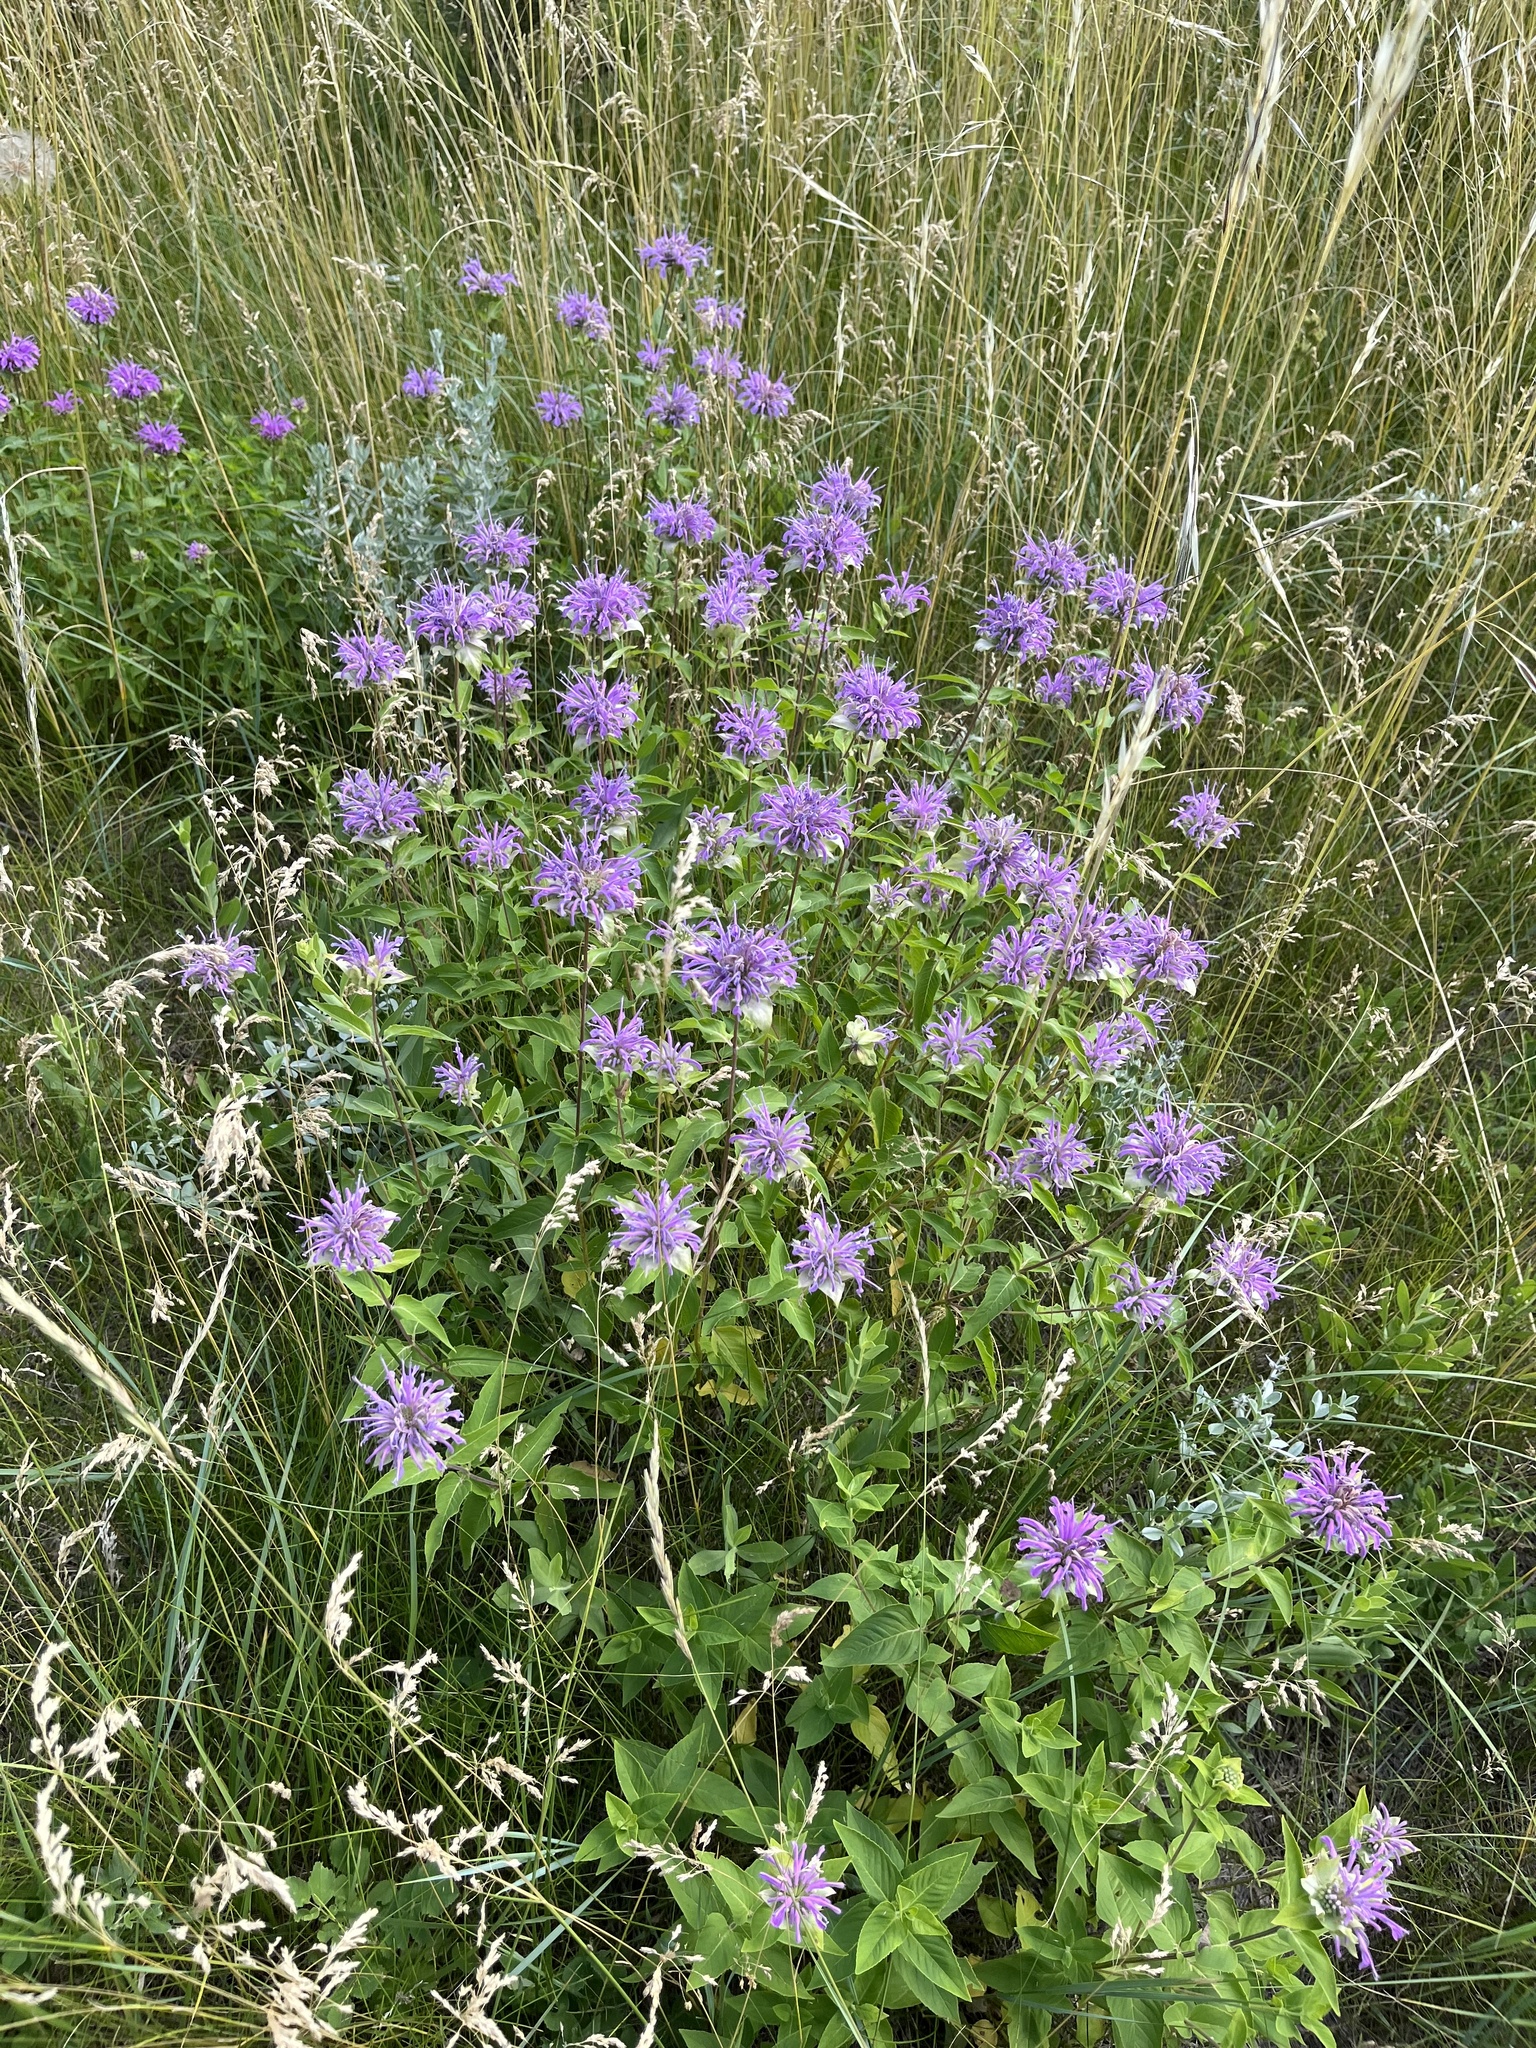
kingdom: Plantae
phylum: Tracheophyta
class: Magnoliopsida
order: Lamiales
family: Lamiaceae
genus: Monarda
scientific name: Monarda fistulosa
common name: Purple beebalm
